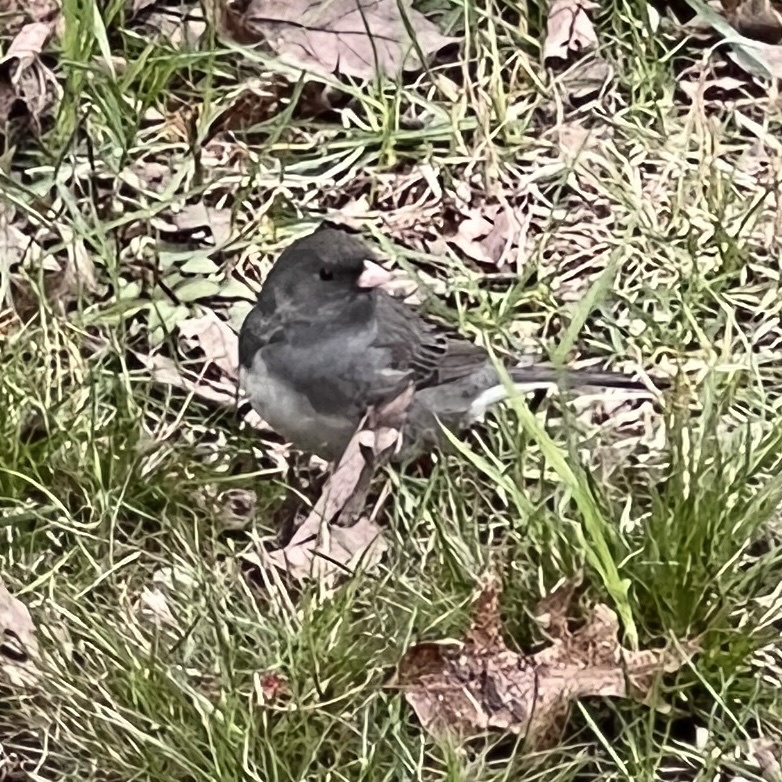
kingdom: Animalia
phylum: Chordata
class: Aves
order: Passeriformes
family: Passerellidae
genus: Junco
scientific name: Junco hyemalis
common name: Dark-eyed junco
